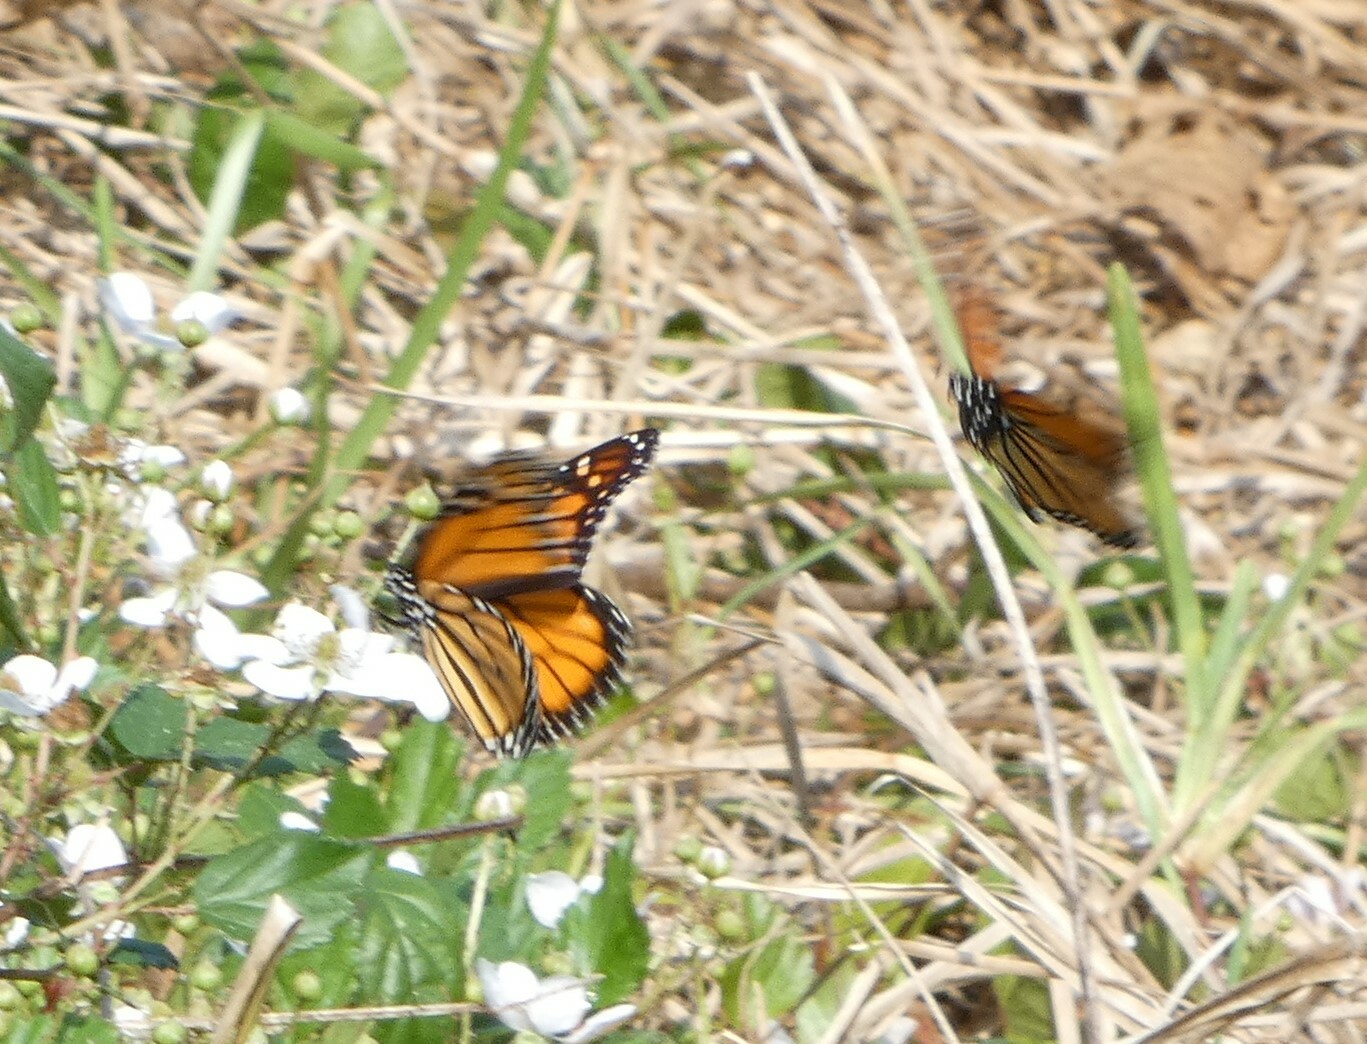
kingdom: Animalia
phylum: Arthropoda
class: Insecta
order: Lepidoptera
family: Nymphalidae
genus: Danaus
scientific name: Danaus plexippus
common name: Monarch
